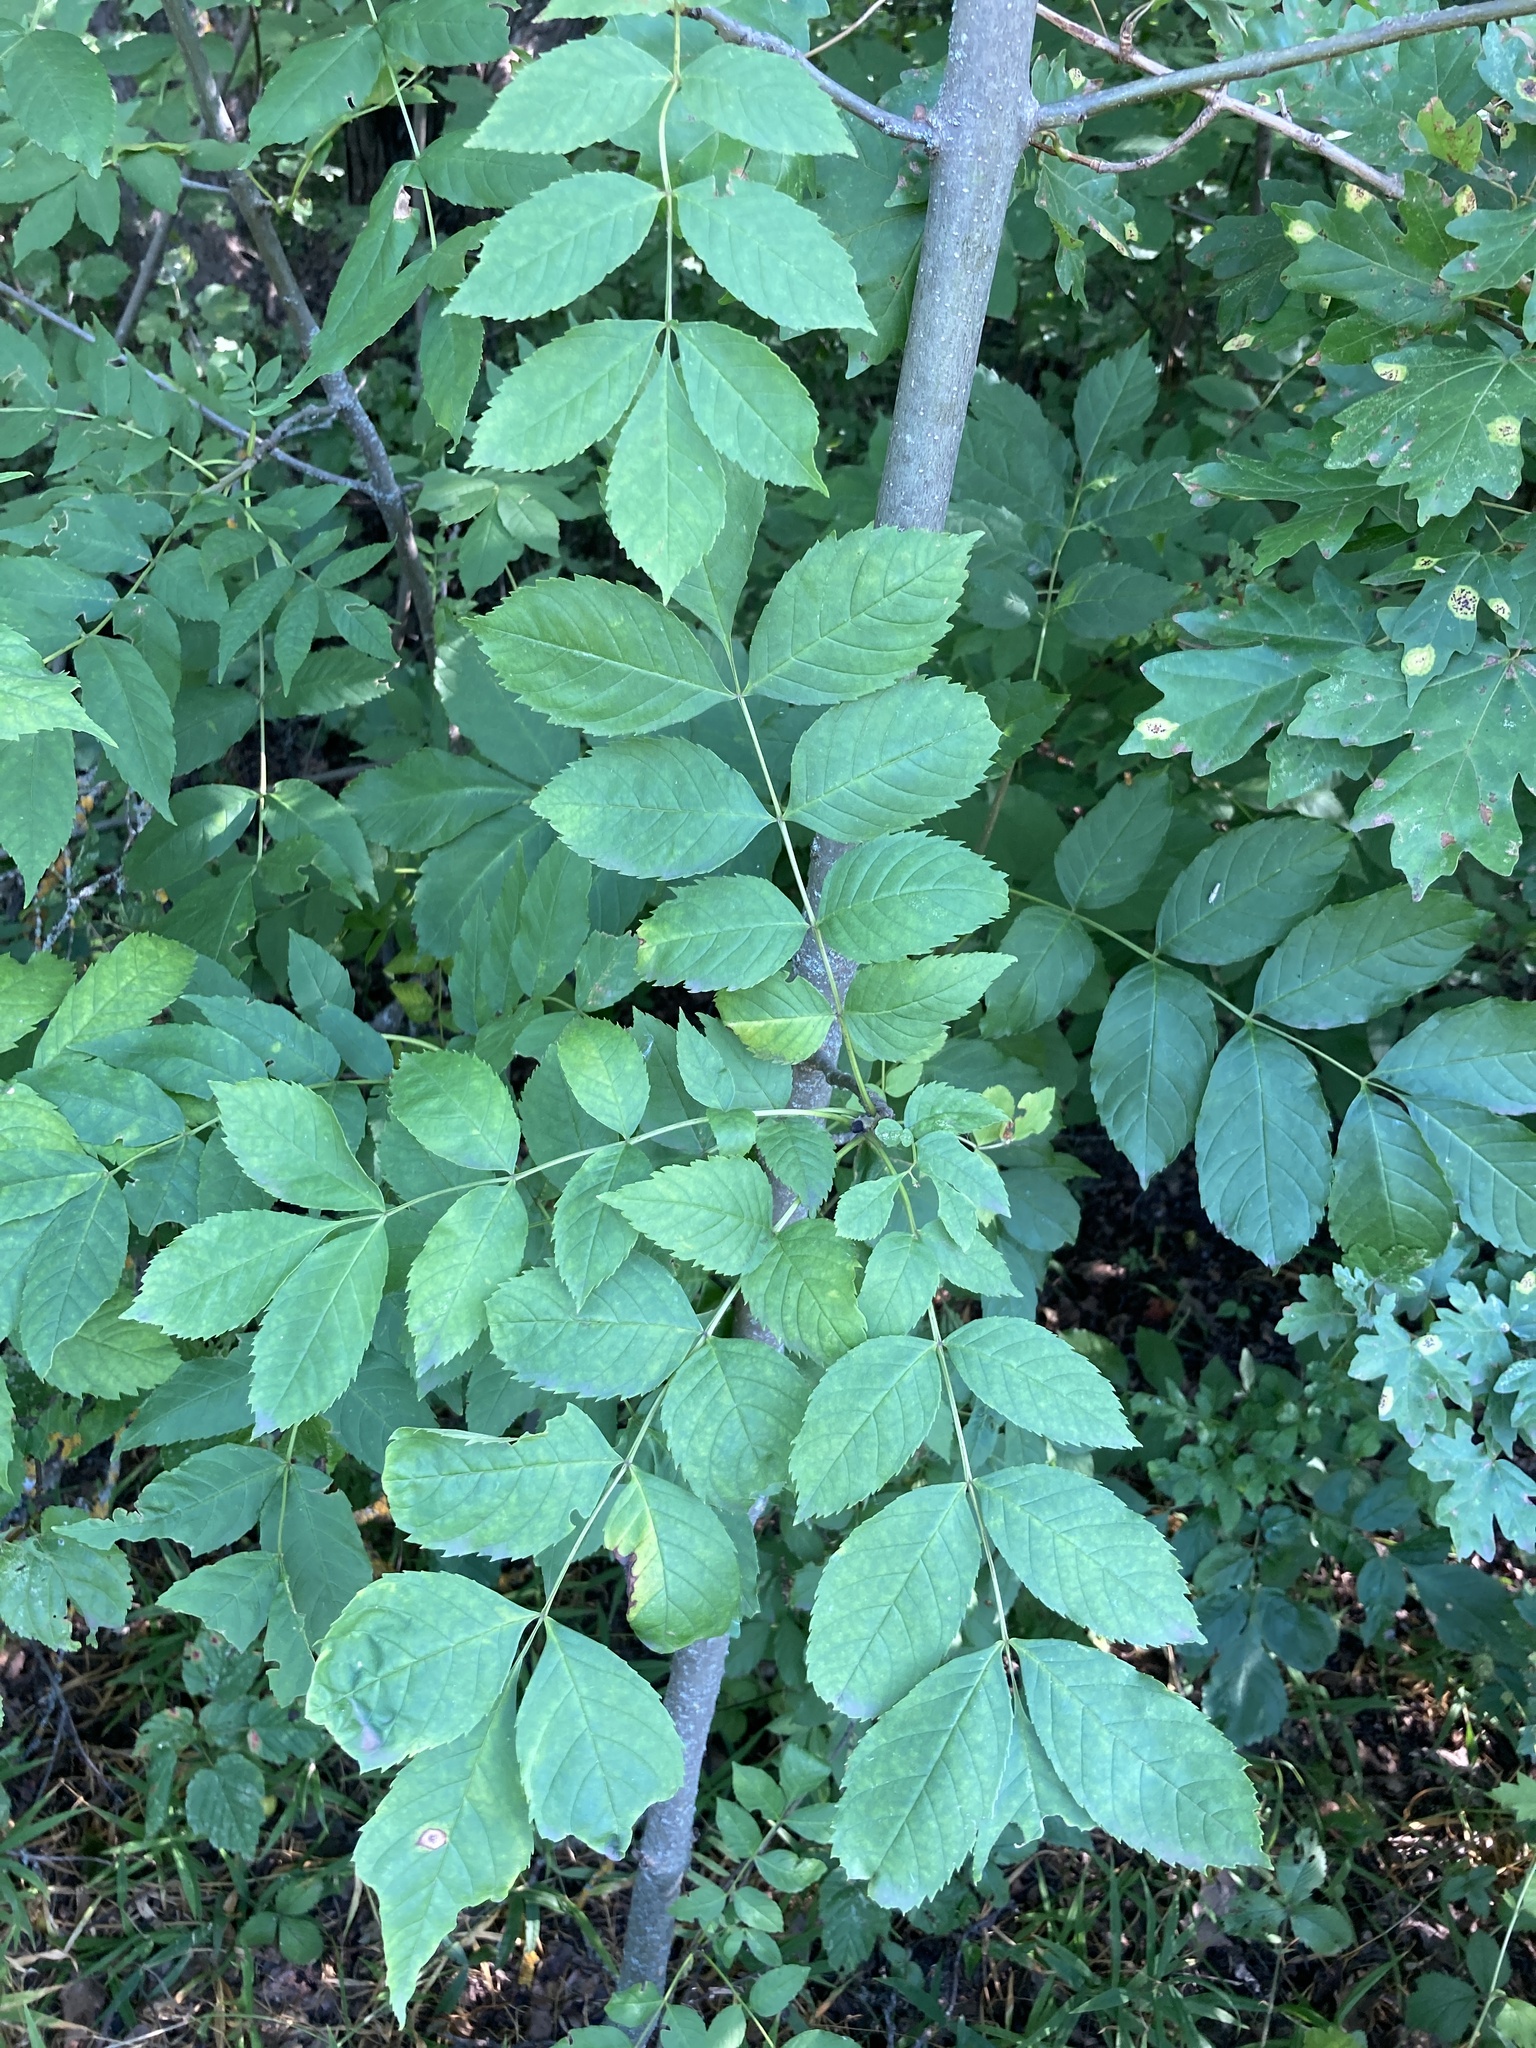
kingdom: Plantae
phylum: Tracheophyta
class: Magnoliopsida
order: Lamiales
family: Oleaceae
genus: Fraxinus
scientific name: Fraxinus excelsior
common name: European ash
